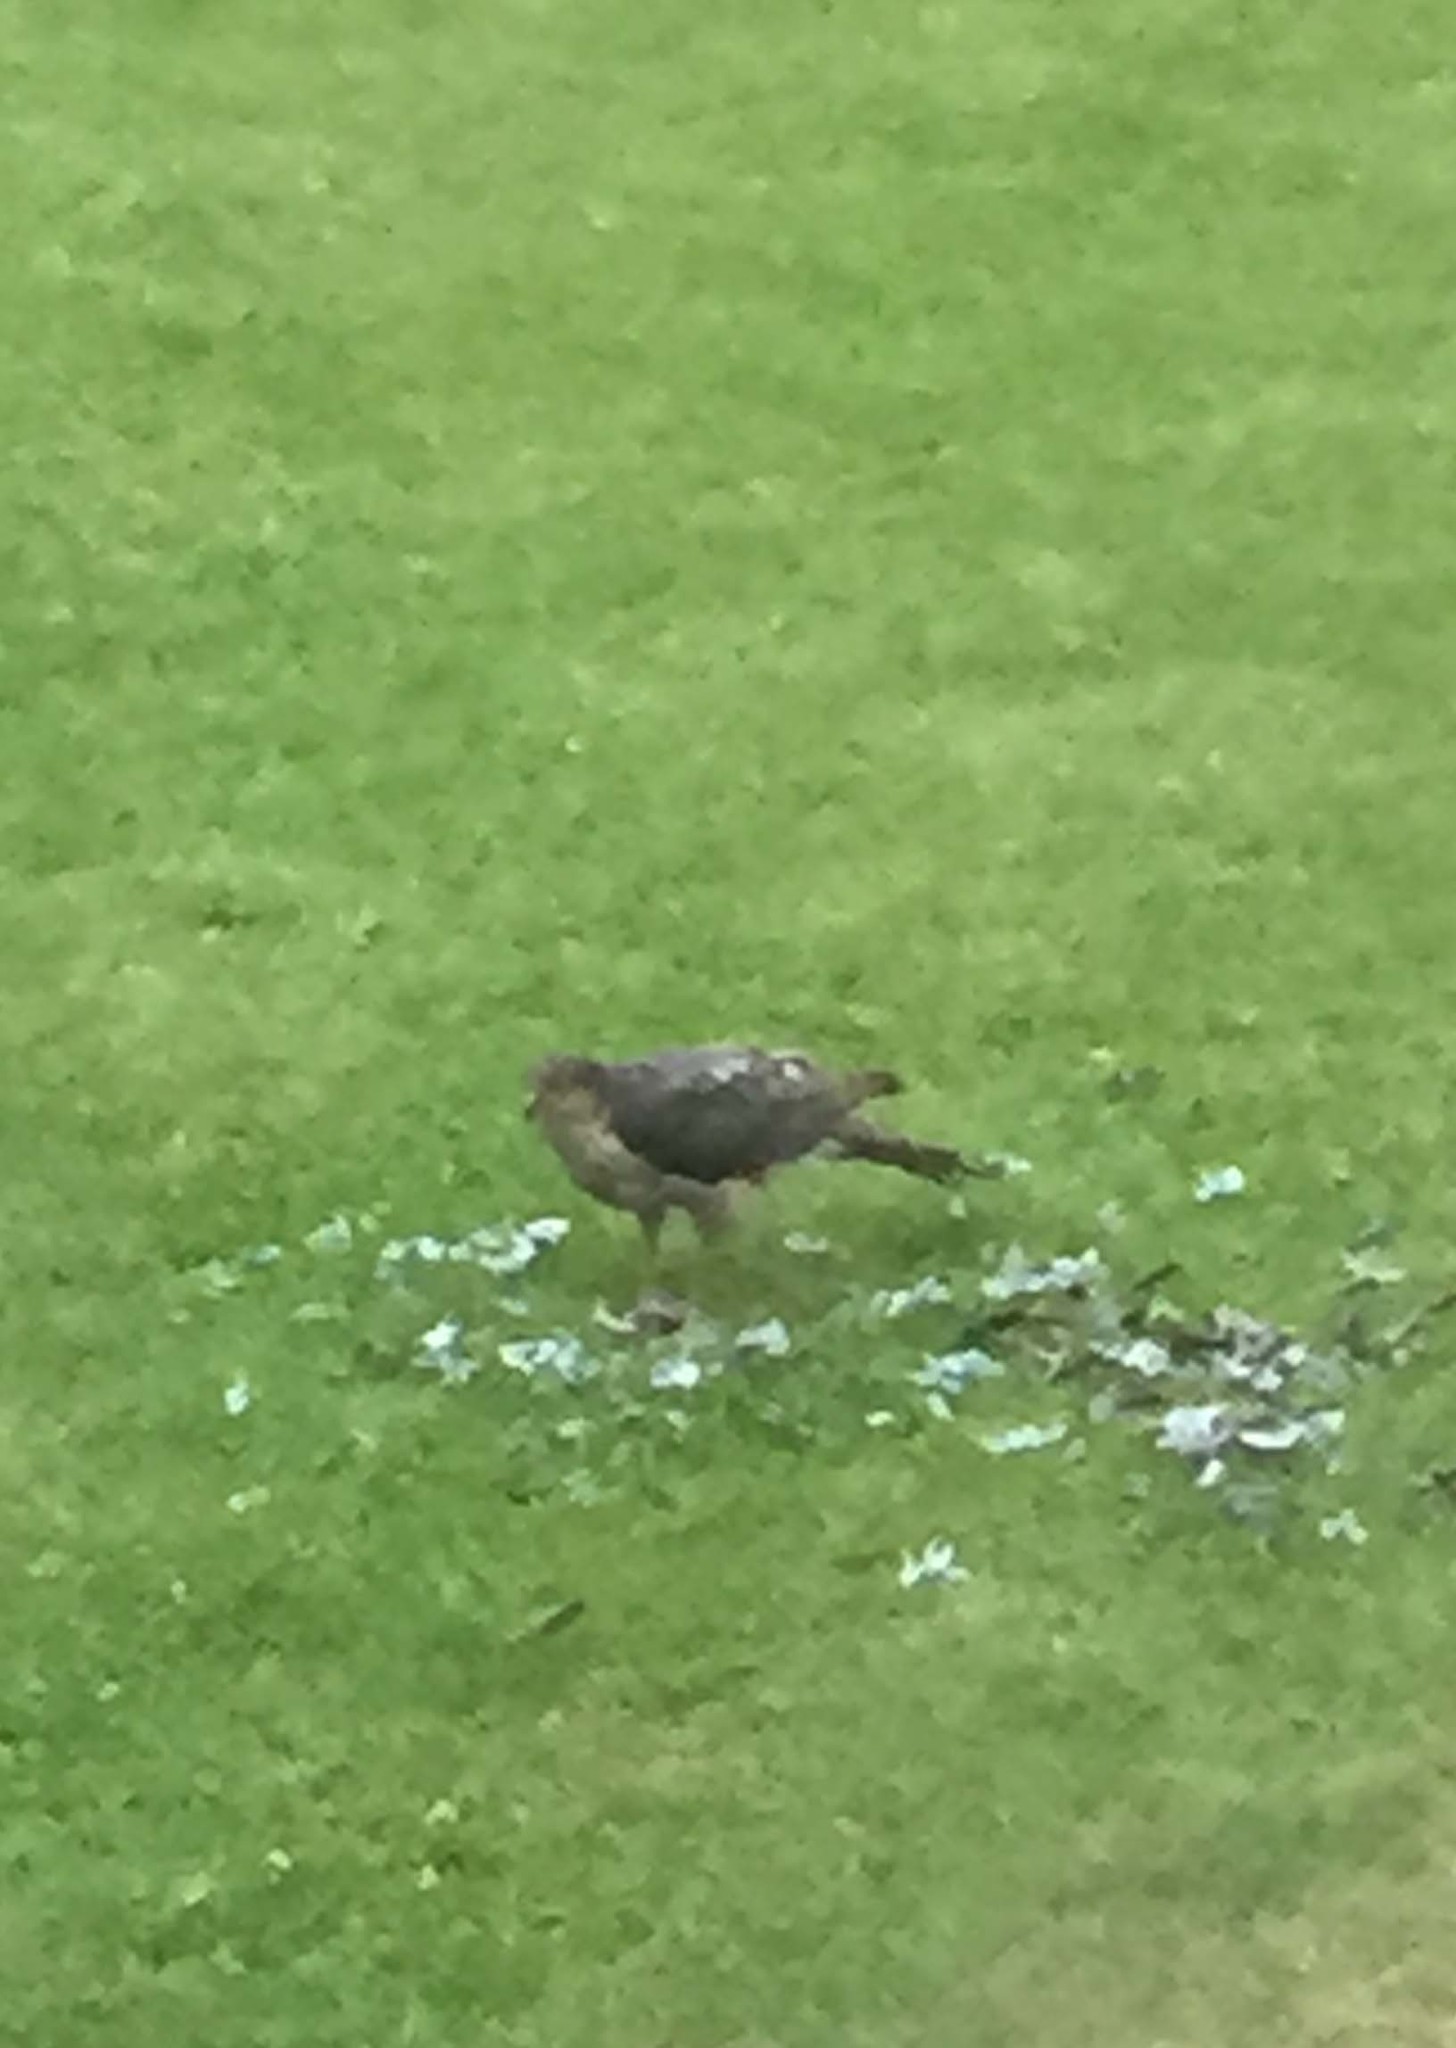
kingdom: Animalia
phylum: Chordata
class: Aves
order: Accipitriformes
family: Accipitridae
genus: Accipiter
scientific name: Accipiter nisus
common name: Eurasian sparrowhawk
